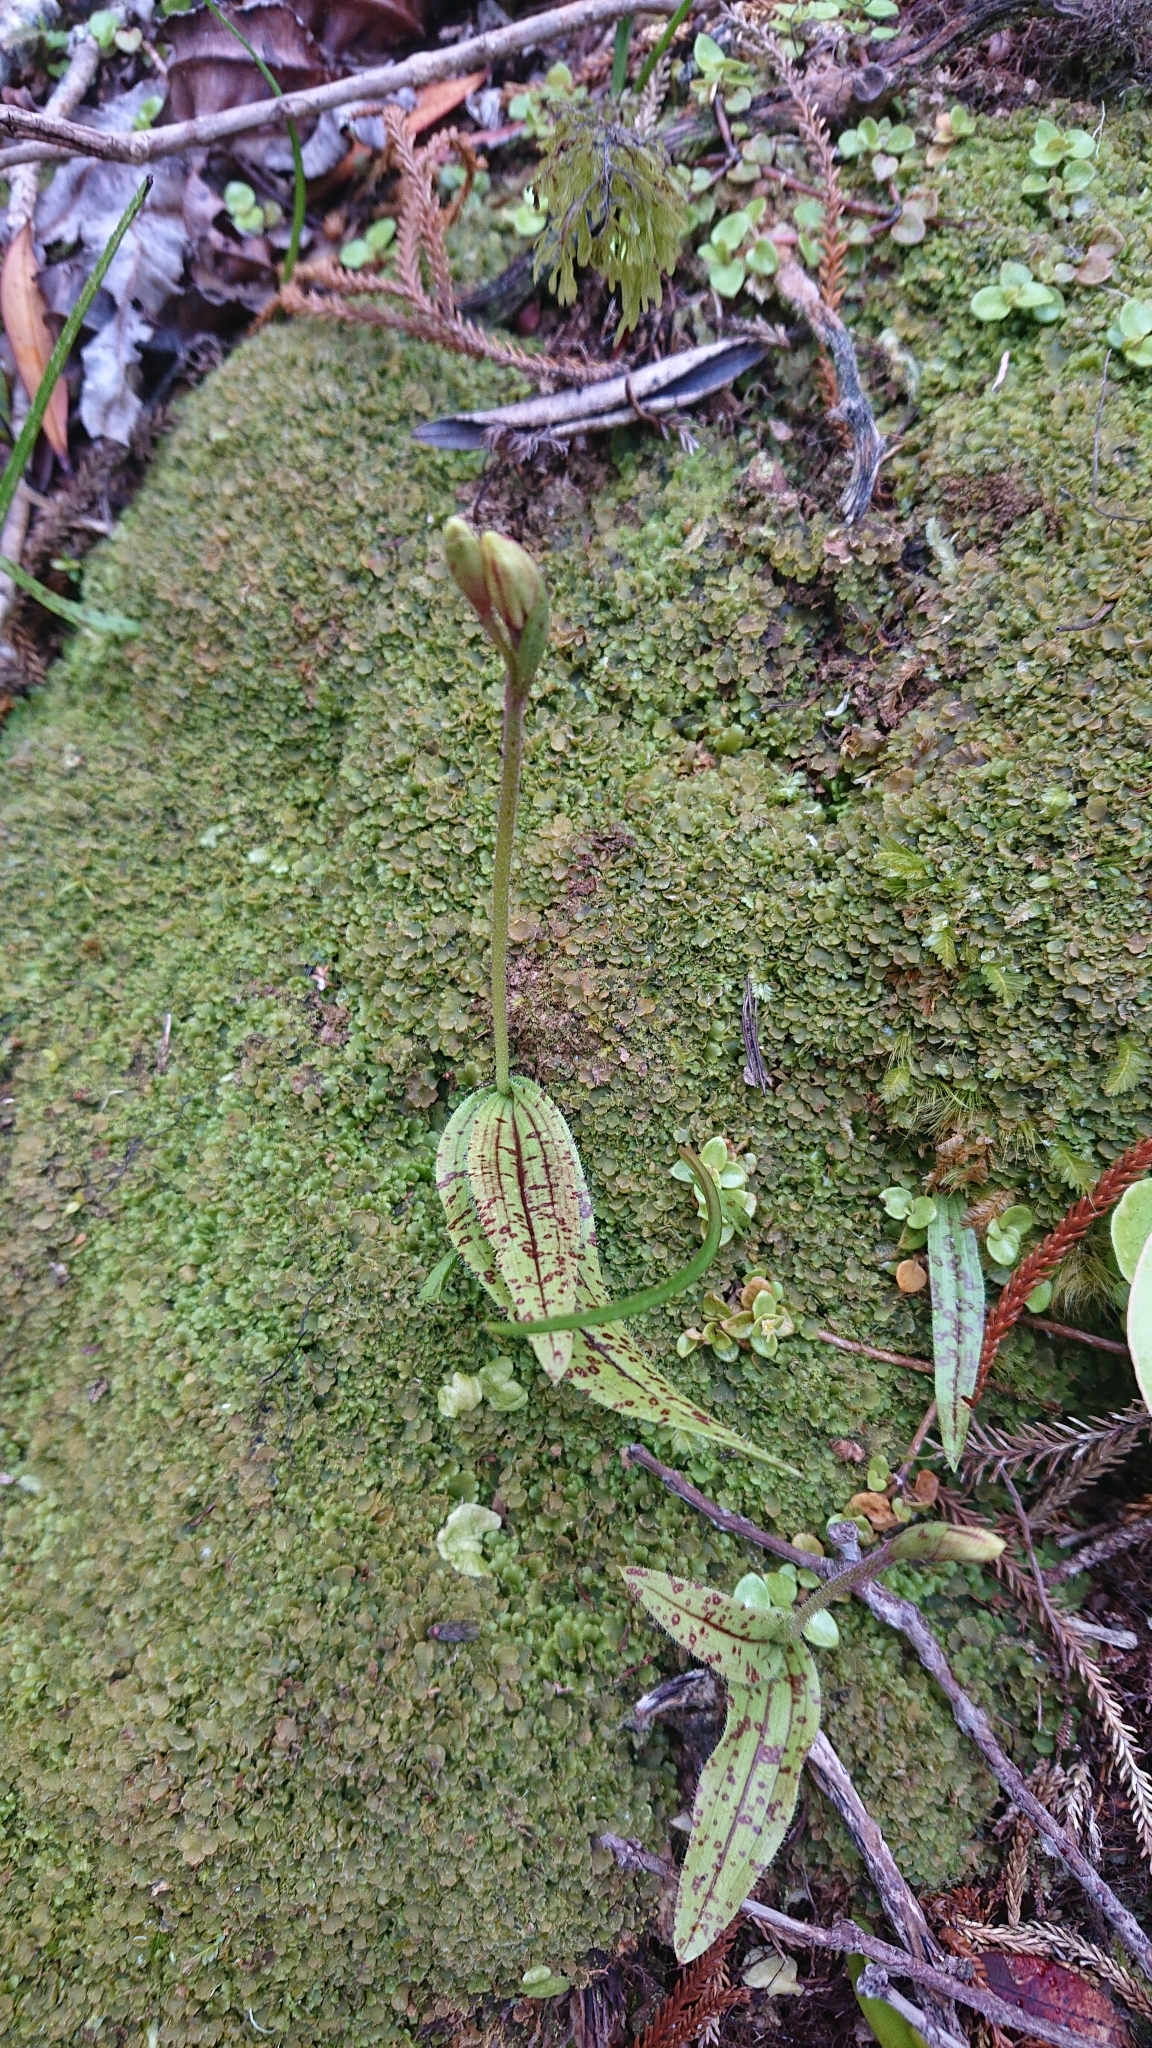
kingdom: Plantae
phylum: Tracheophyta
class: Liliopsida
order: Asparagales
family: Orchidaceae
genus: Aporostylis
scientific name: Aporostylis bifolia
